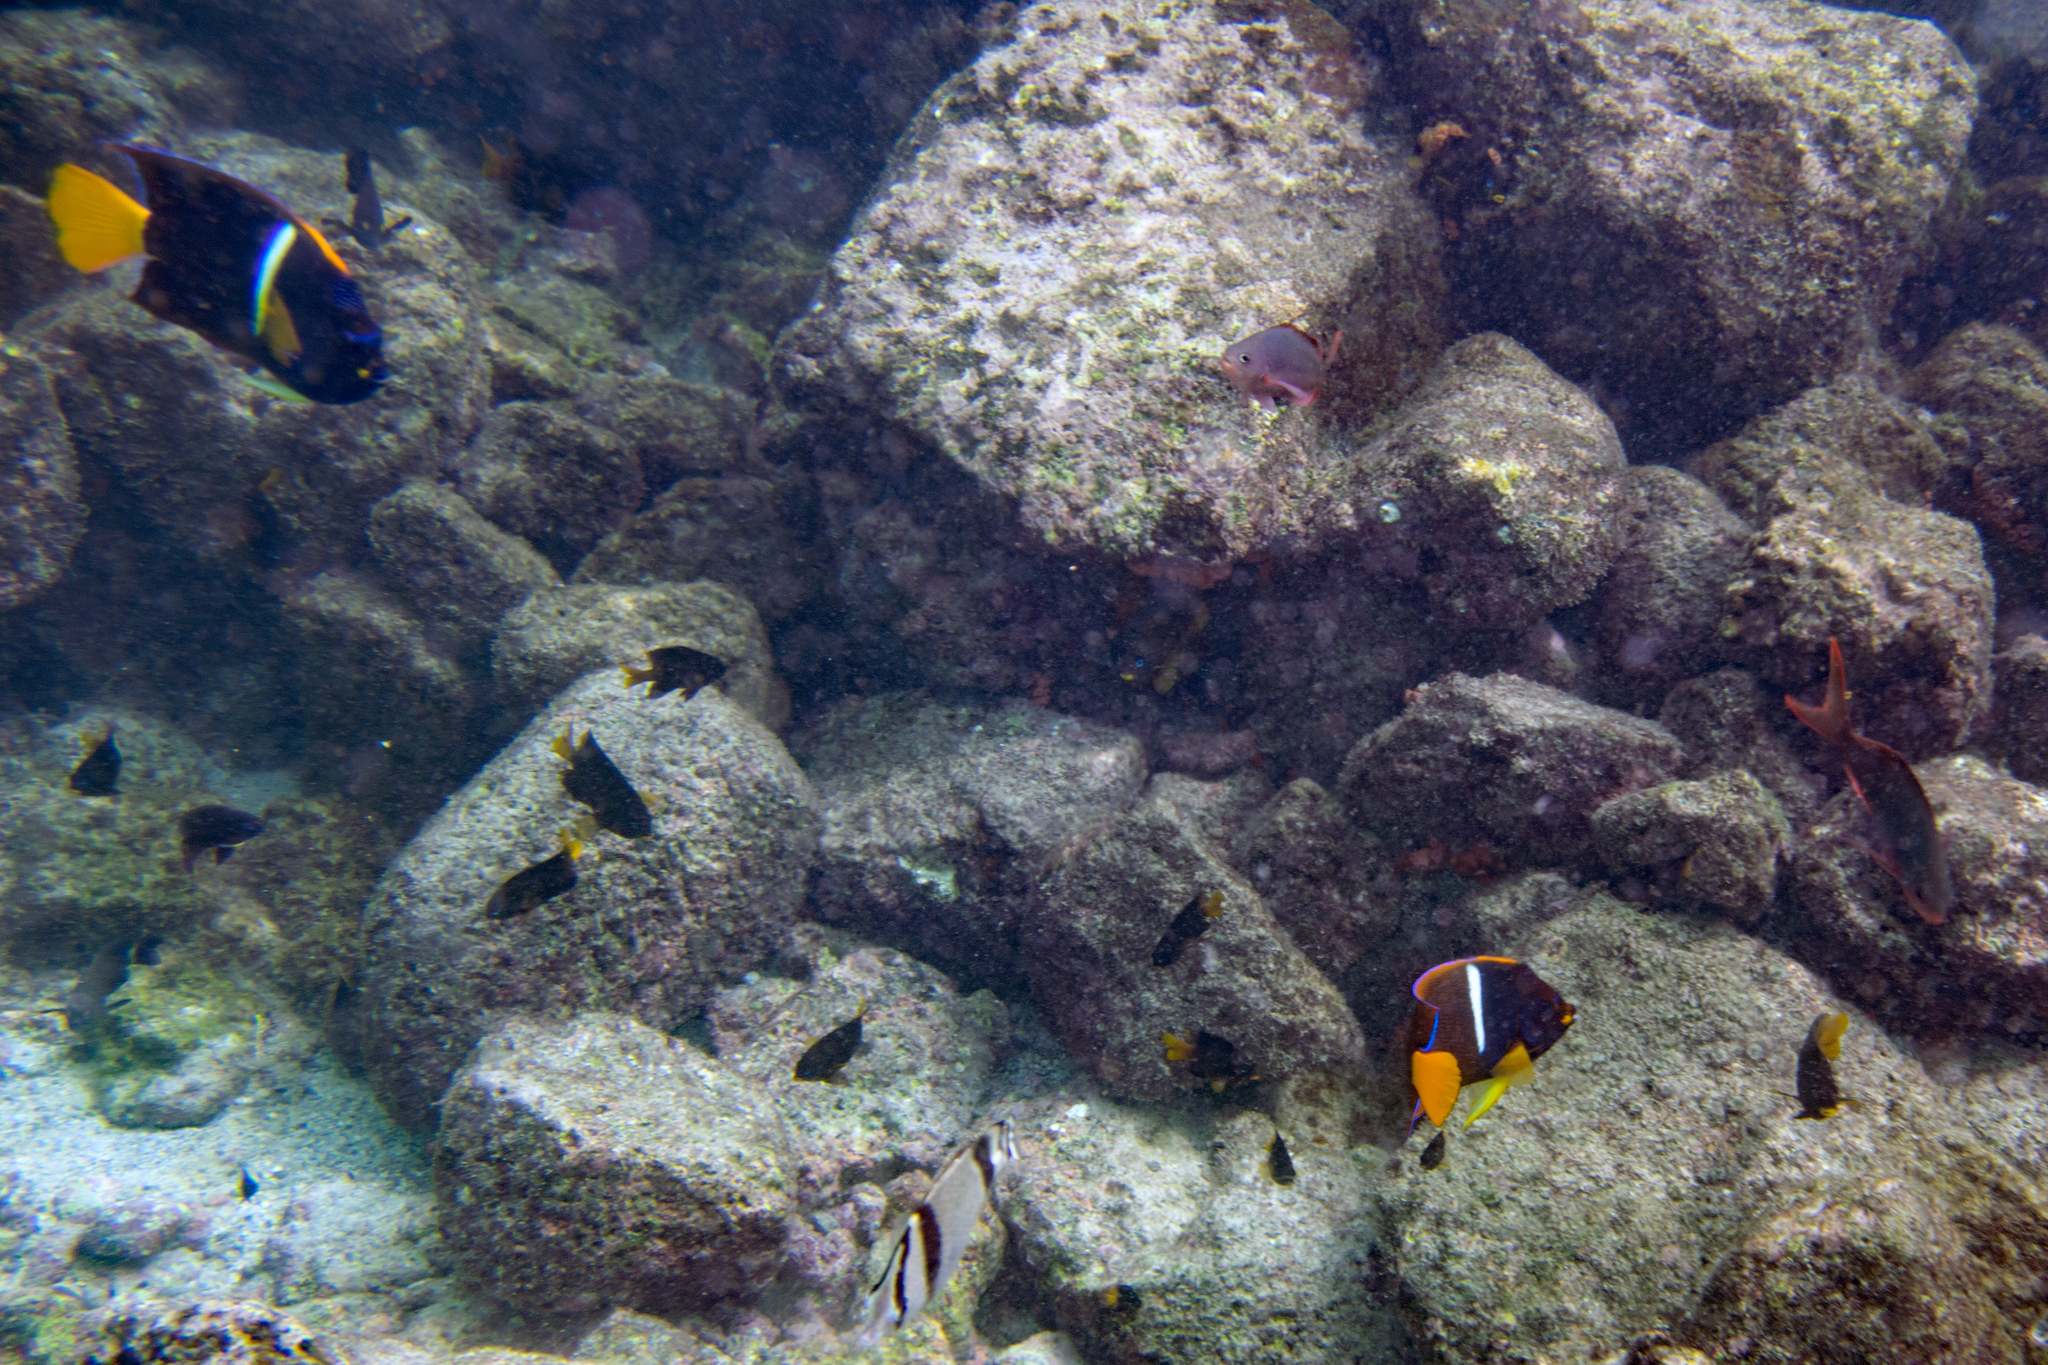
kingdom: Animalia
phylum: Chordata
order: Perciformes
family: Pomacanthidae
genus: Holacanthus
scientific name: Holacanthus passer
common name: King angelfish
